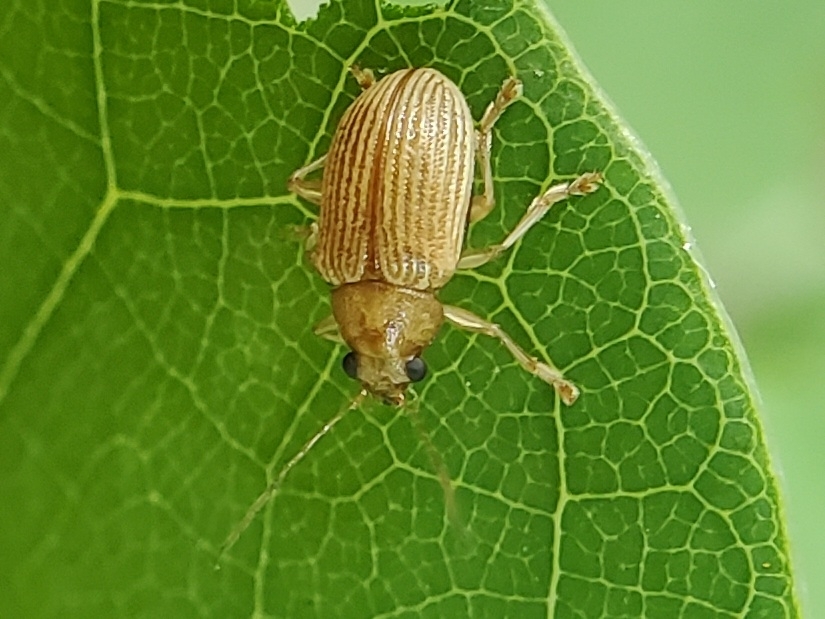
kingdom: Animalia
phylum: Arthropoda
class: Insecta
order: Coleoptera
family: Chrysomelidae
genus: Colaspis
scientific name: Colaspis brunnea
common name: Grape colaspis
